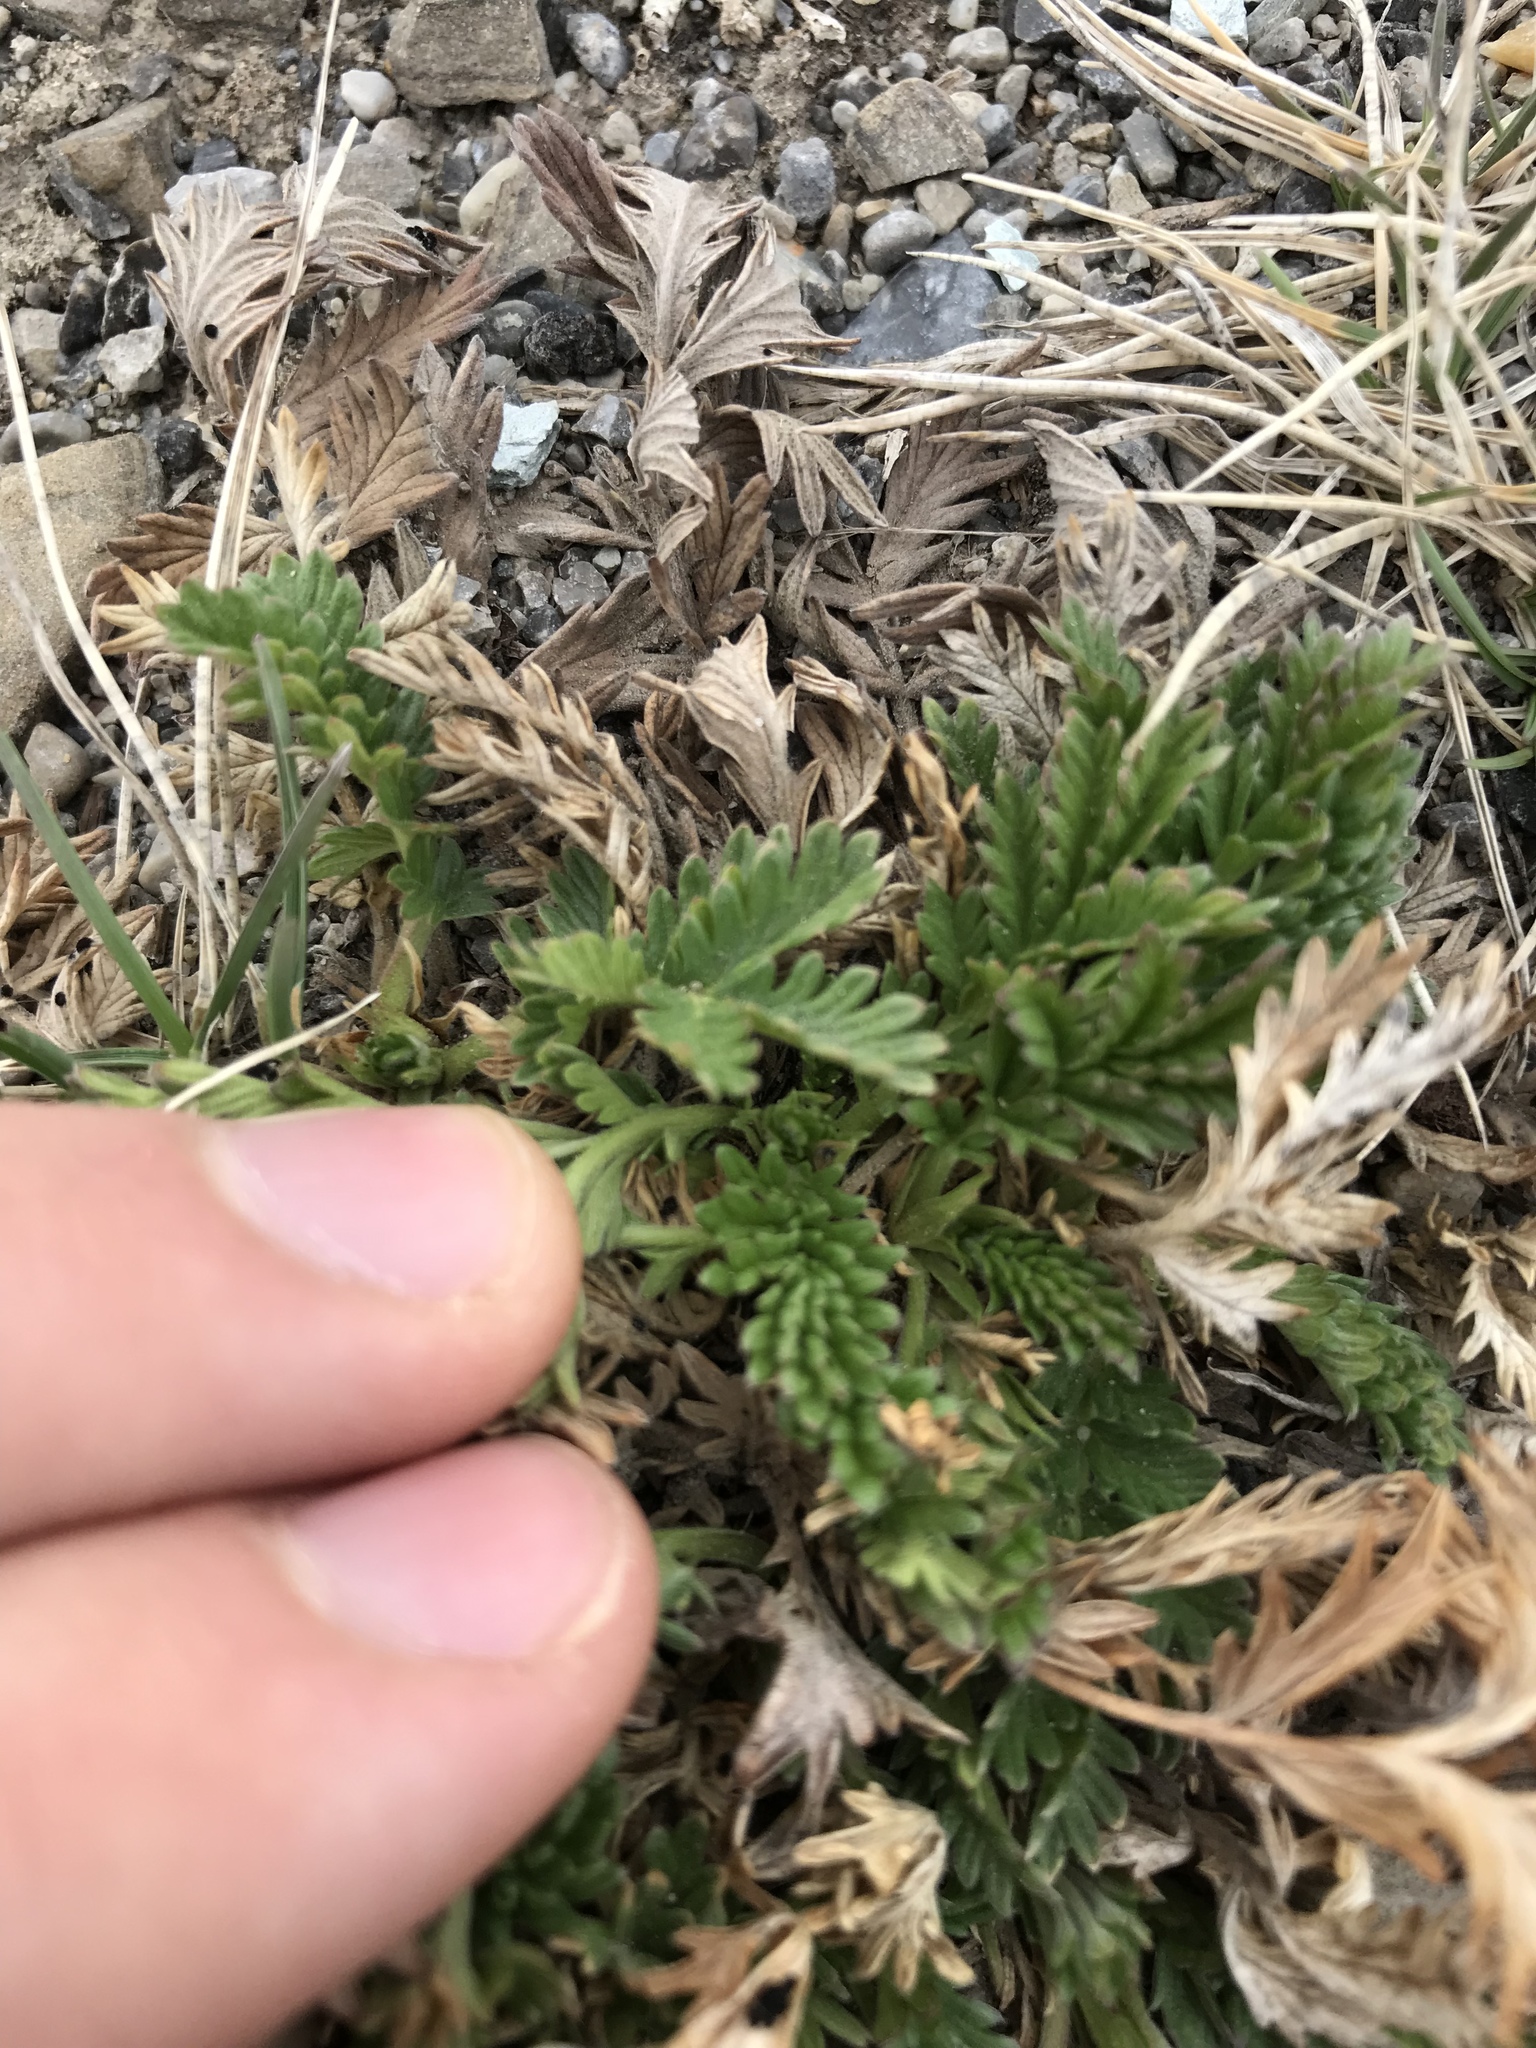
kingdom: Plantae
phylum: Tracheophyta
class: Magnoliopsida
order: Rosales
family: Rosaceae
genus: Potentilla
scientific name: Potentilla pensylvanica
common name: Pennsylvania cinquefoil
